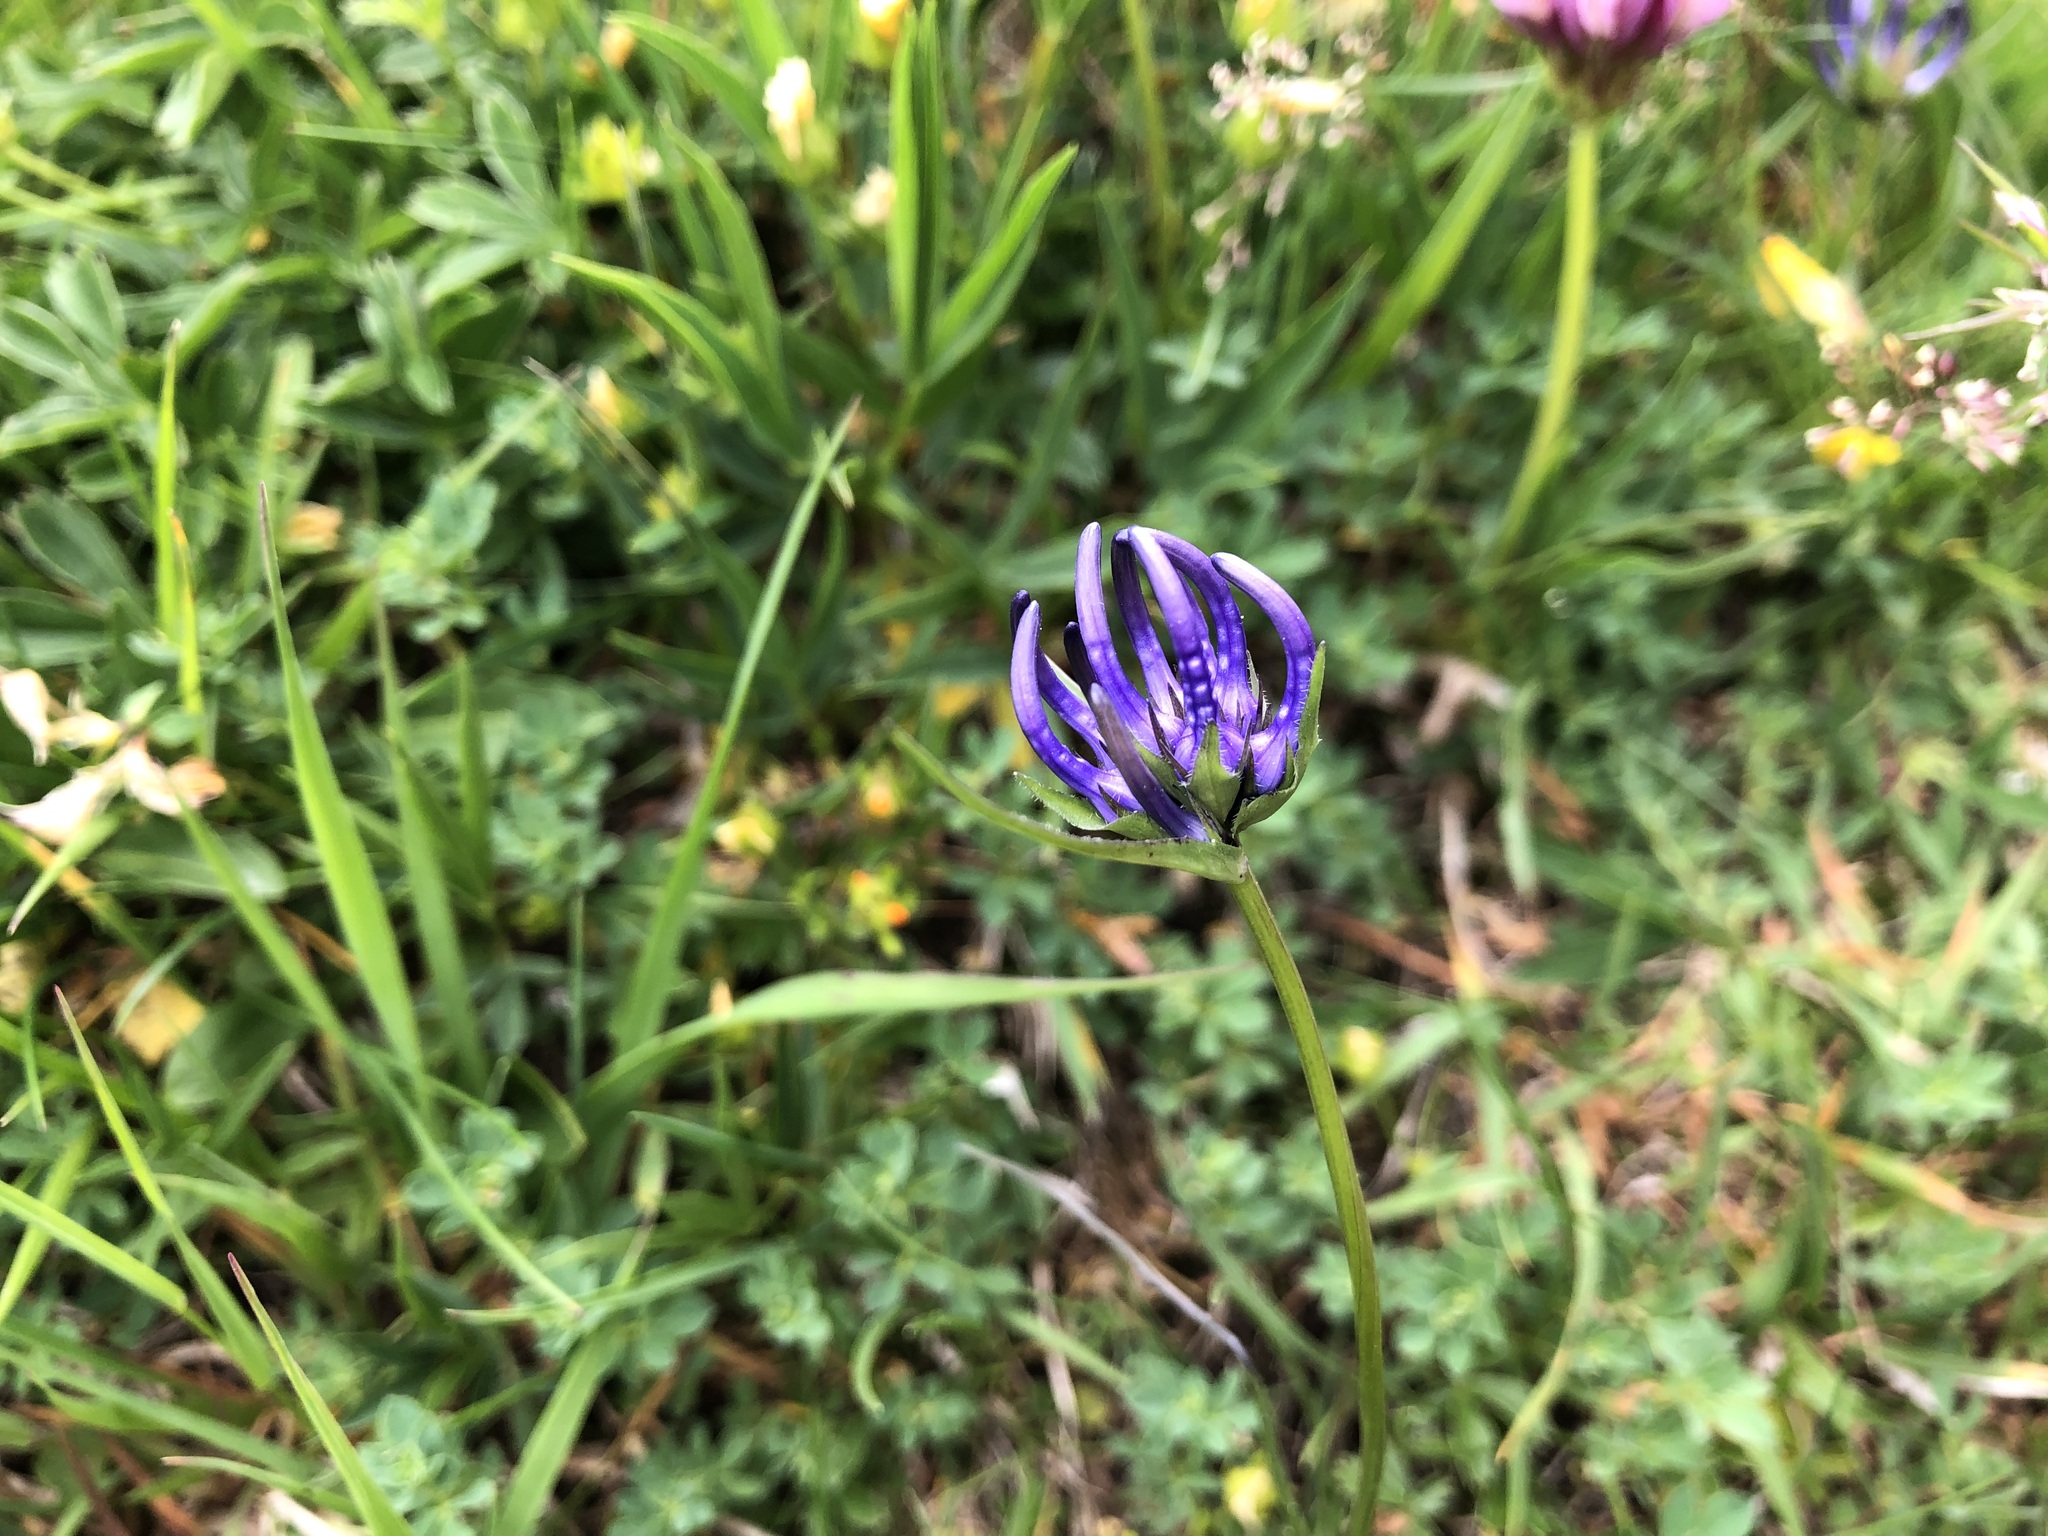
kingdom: Plantae
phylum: Tracheophyta
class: Magnoliopsida
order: Asterales
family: Campanulaceae
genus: Phyteuma
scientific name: Phyteuma hemisphaericum
